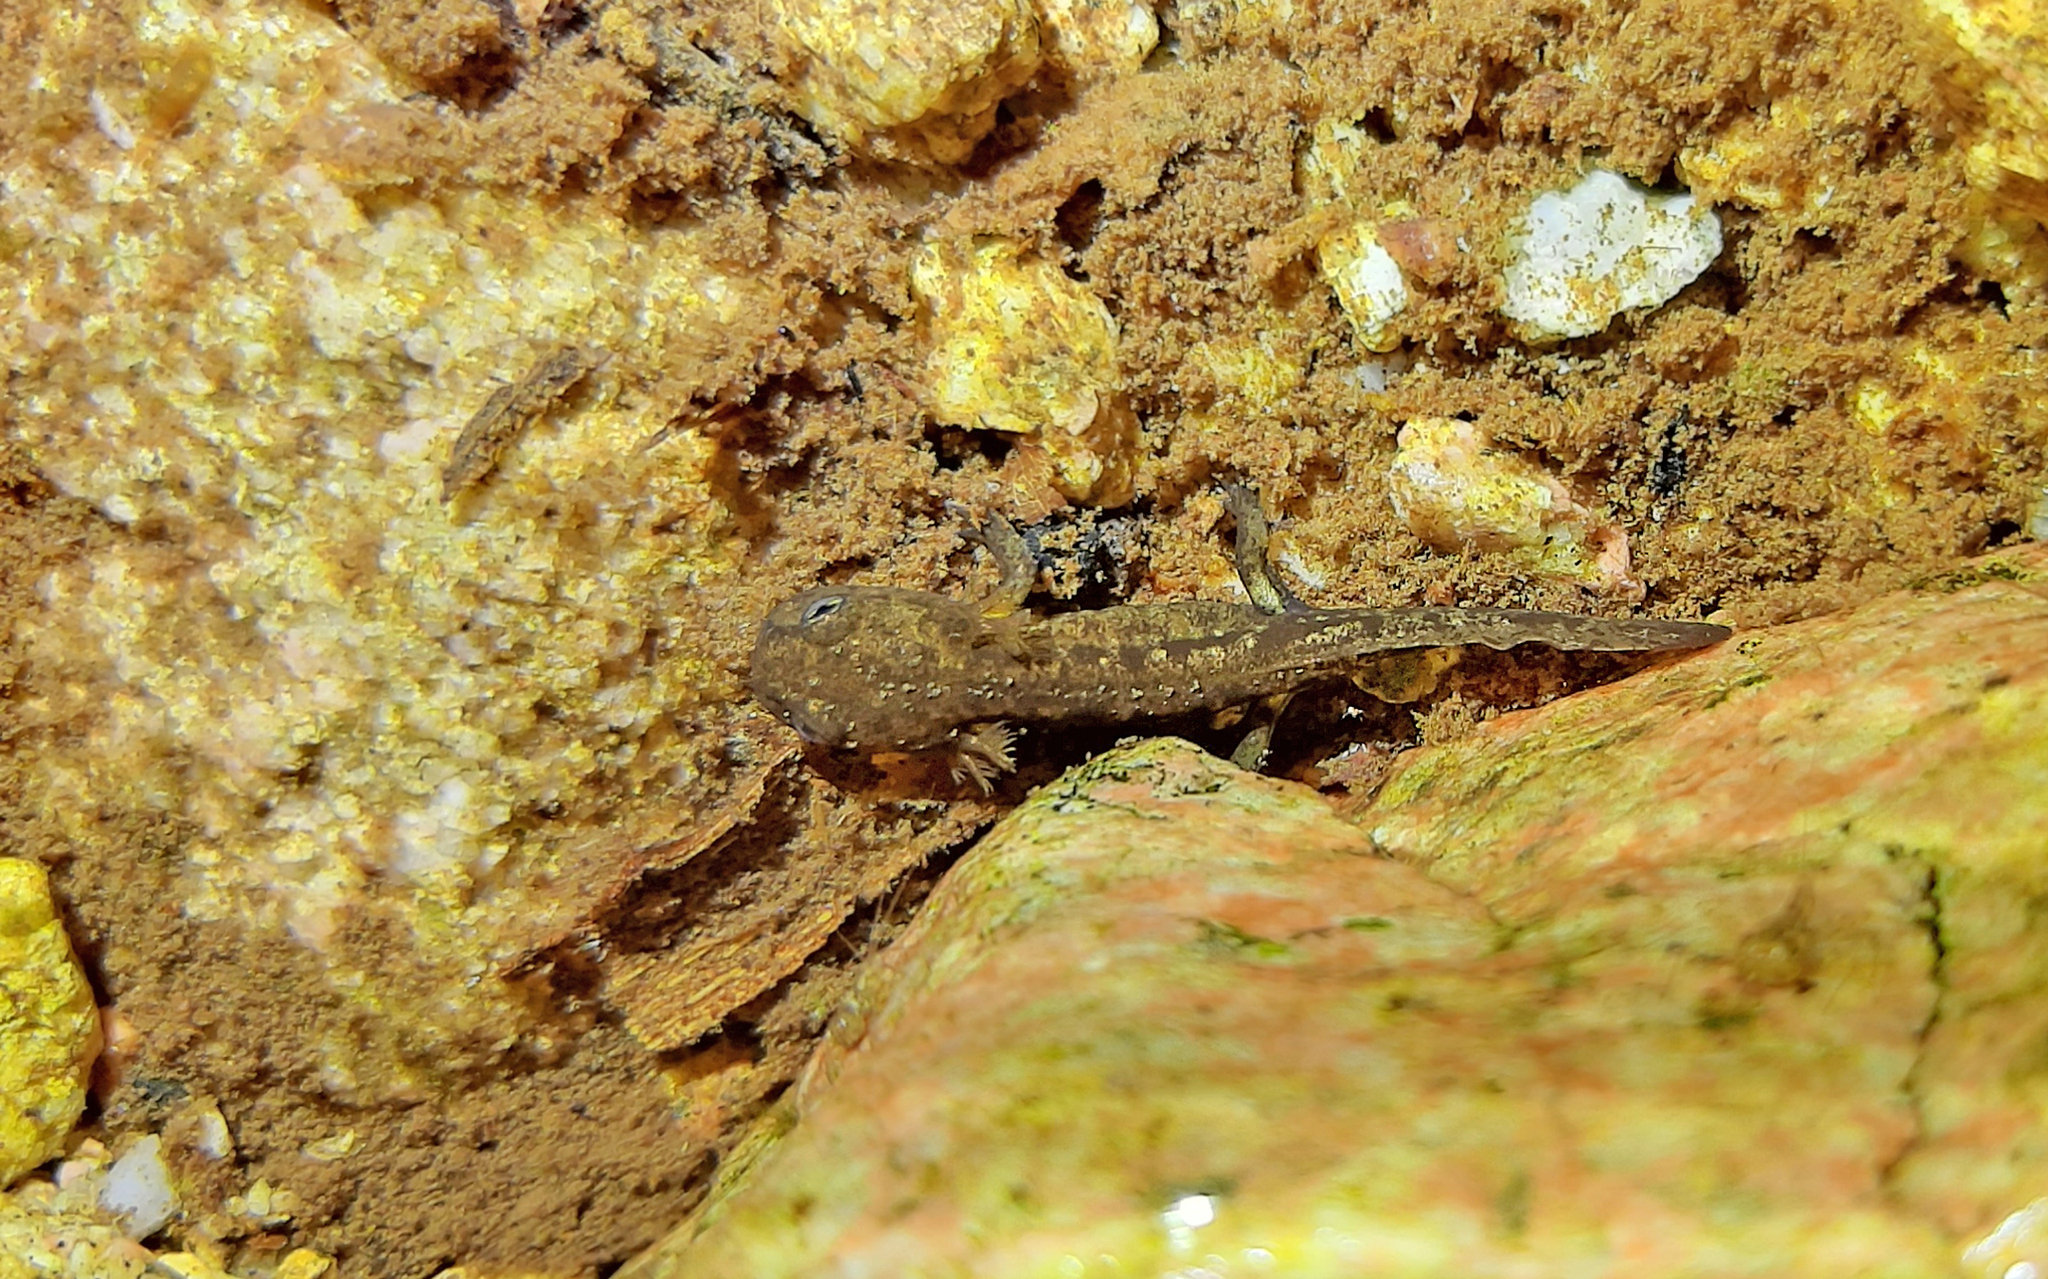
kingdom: Animalia
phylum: Chordata
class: Amphibia
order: Caudata
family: Salamandridae
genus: Salamandra
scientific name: Salamandra corsica
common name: Corsican fire salamander
